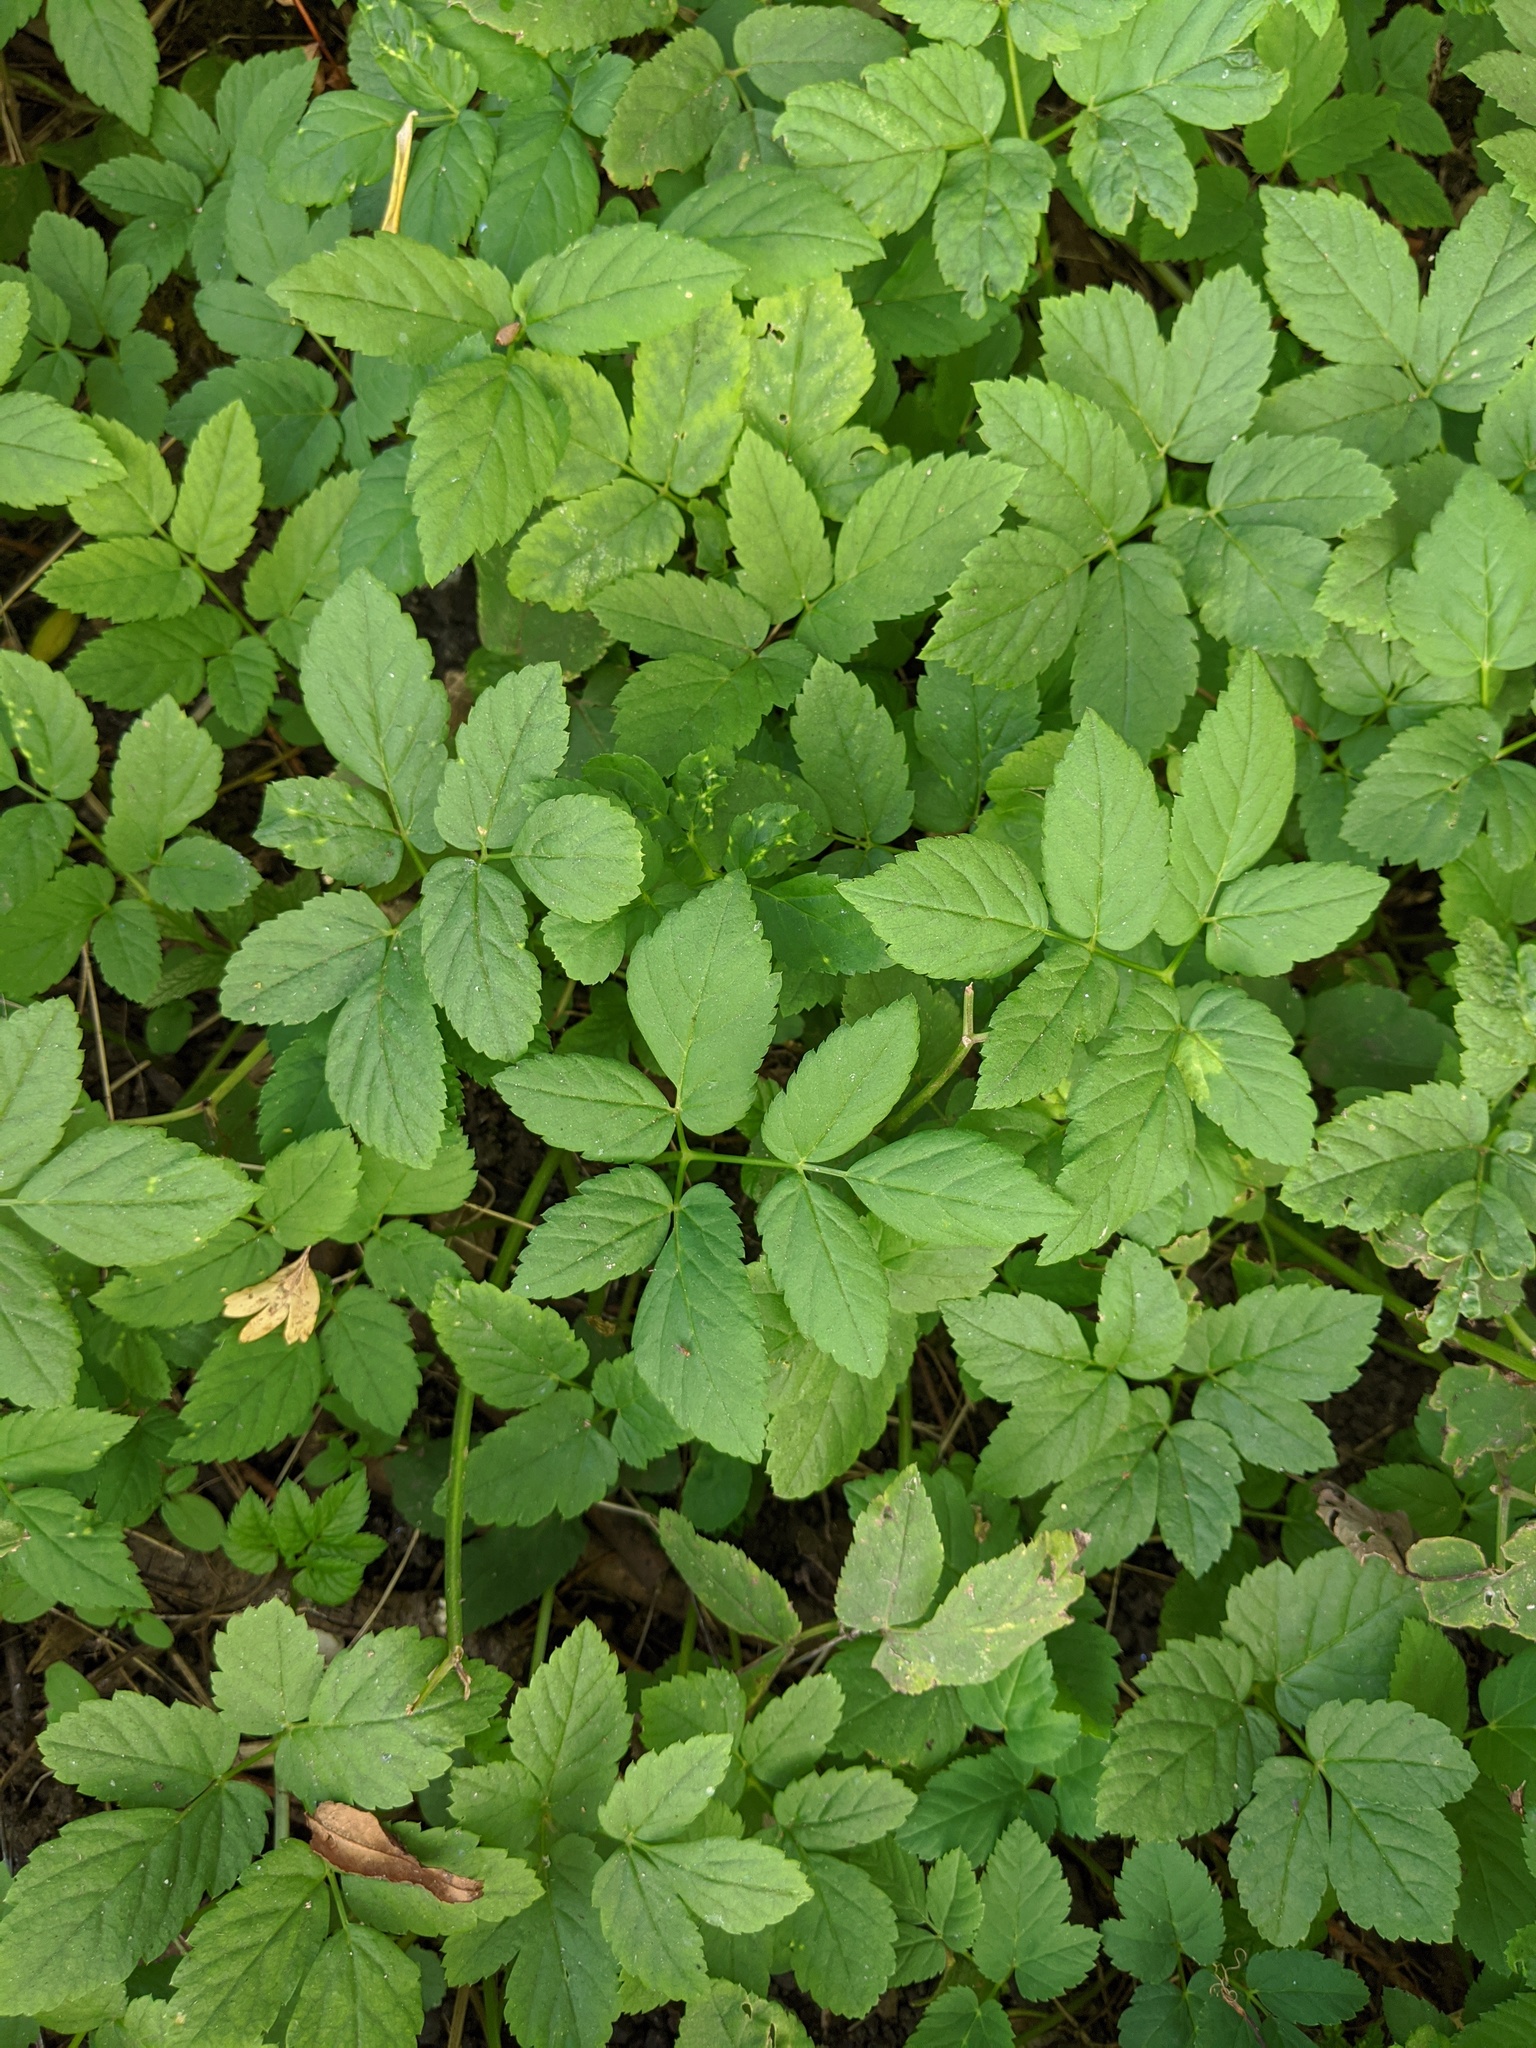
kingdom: Plantae
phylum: Tracheophyta
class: Magnoliopsida
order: Apiales
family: Apiaceae
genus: Aegopodium
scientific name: Aegopodium podagraria
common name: Ground-elder
